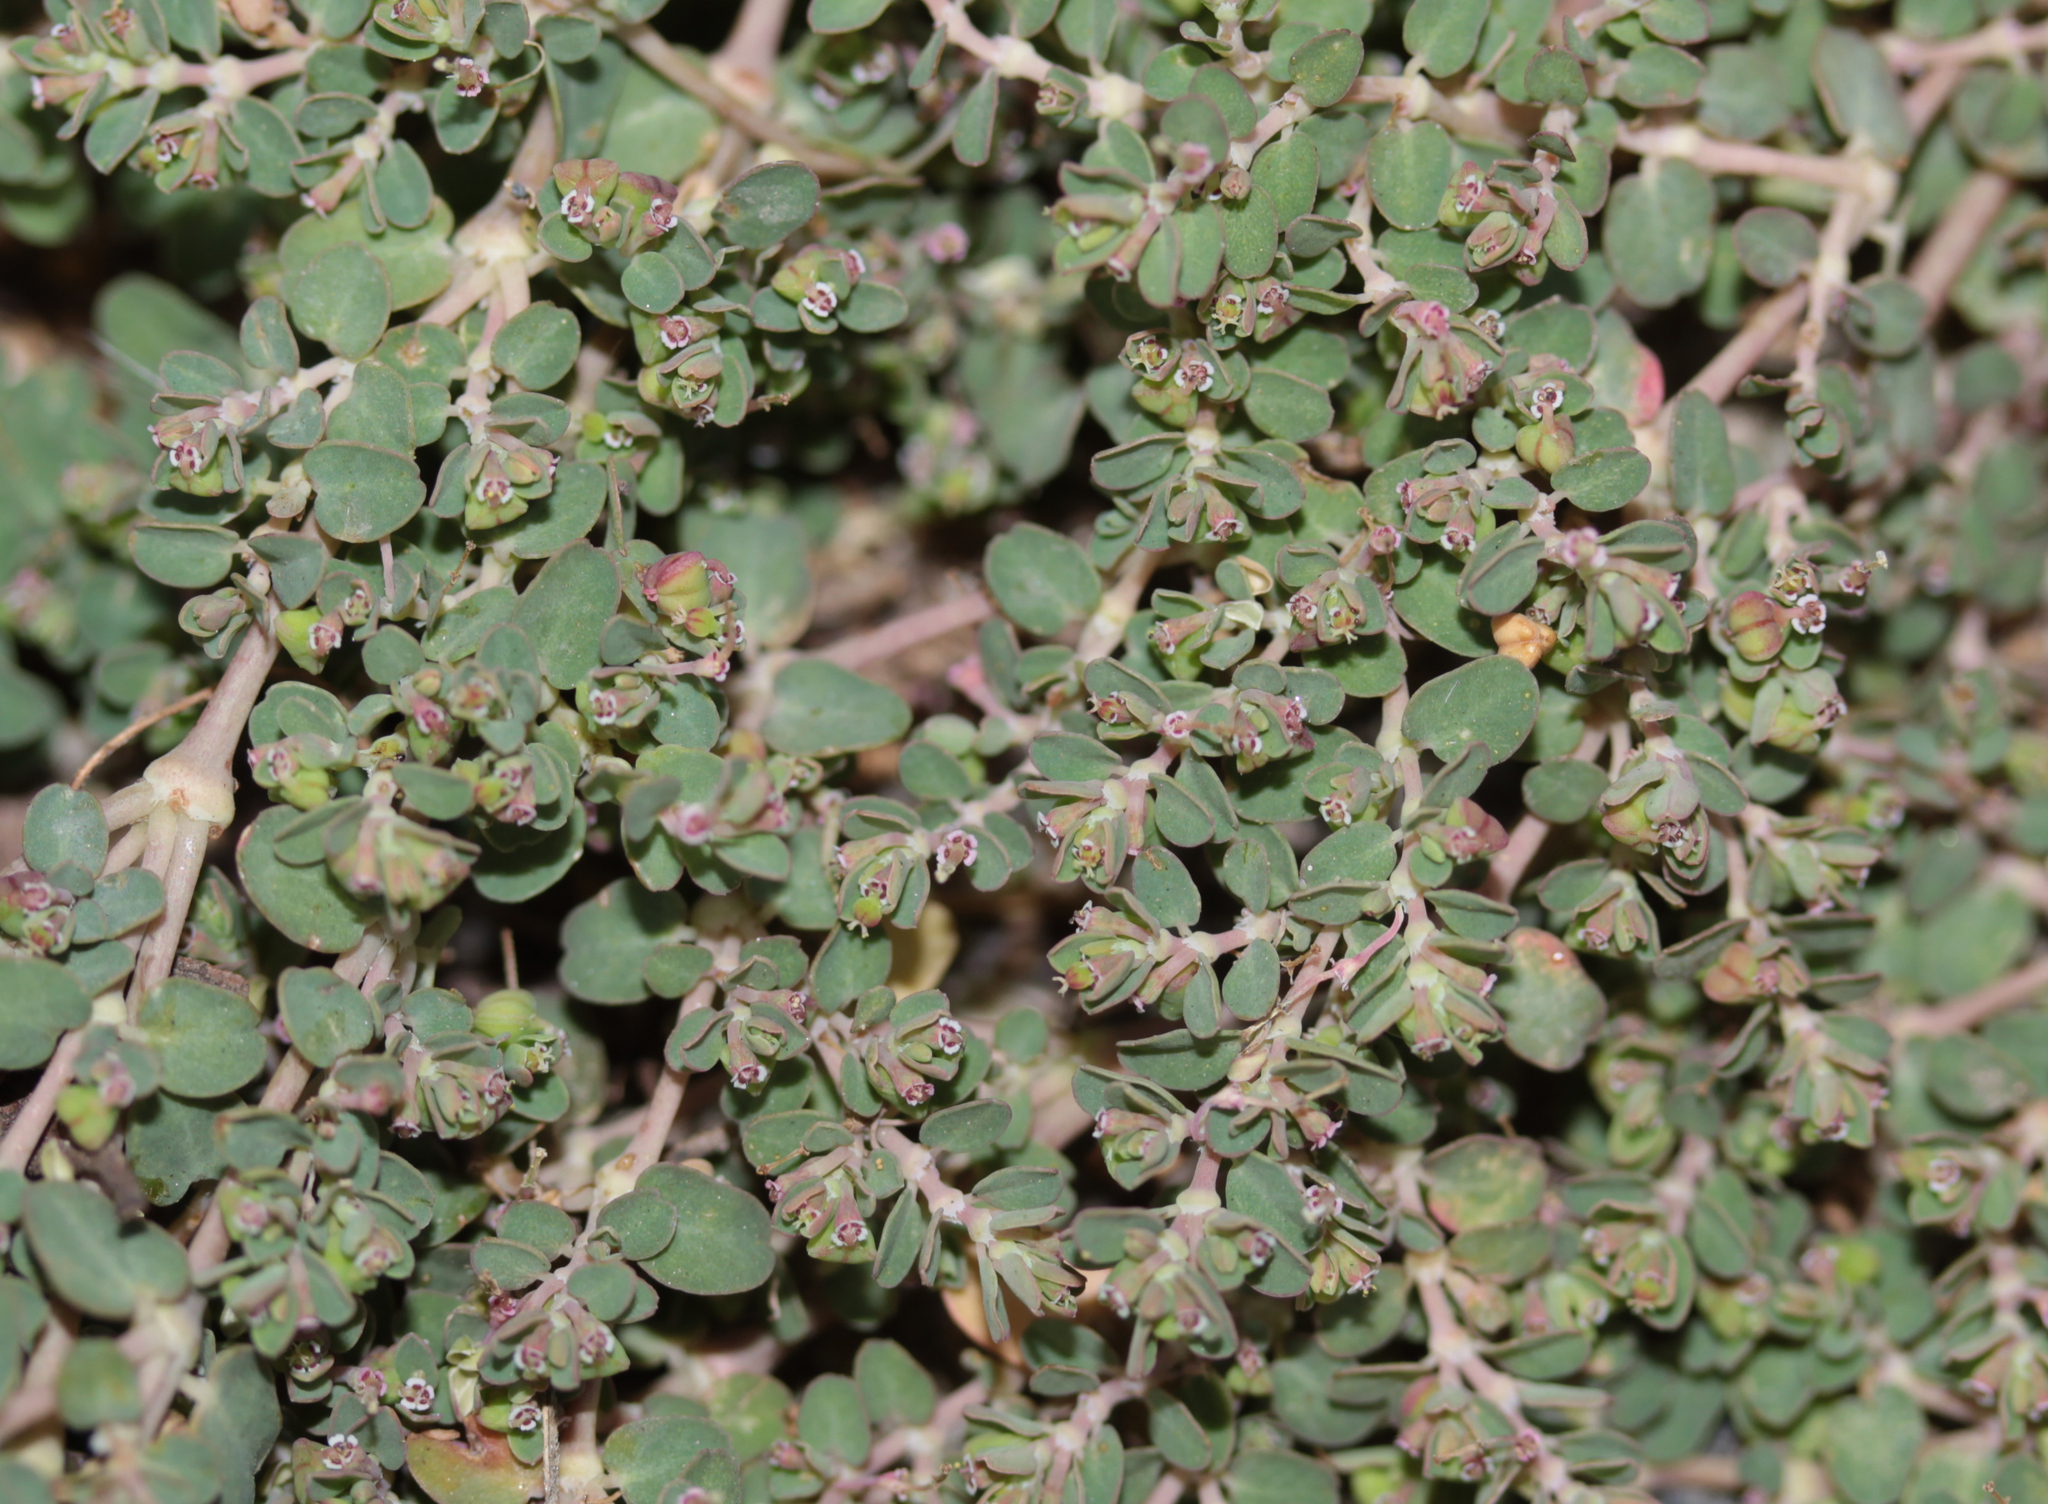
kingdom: Plantae
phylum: Tracheophyta
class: Magnoliopsida
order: Malpighiales
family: Euphorbiaceae
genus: Euphorbia
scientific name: Euphorbia serpens
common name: Matted sandmat
